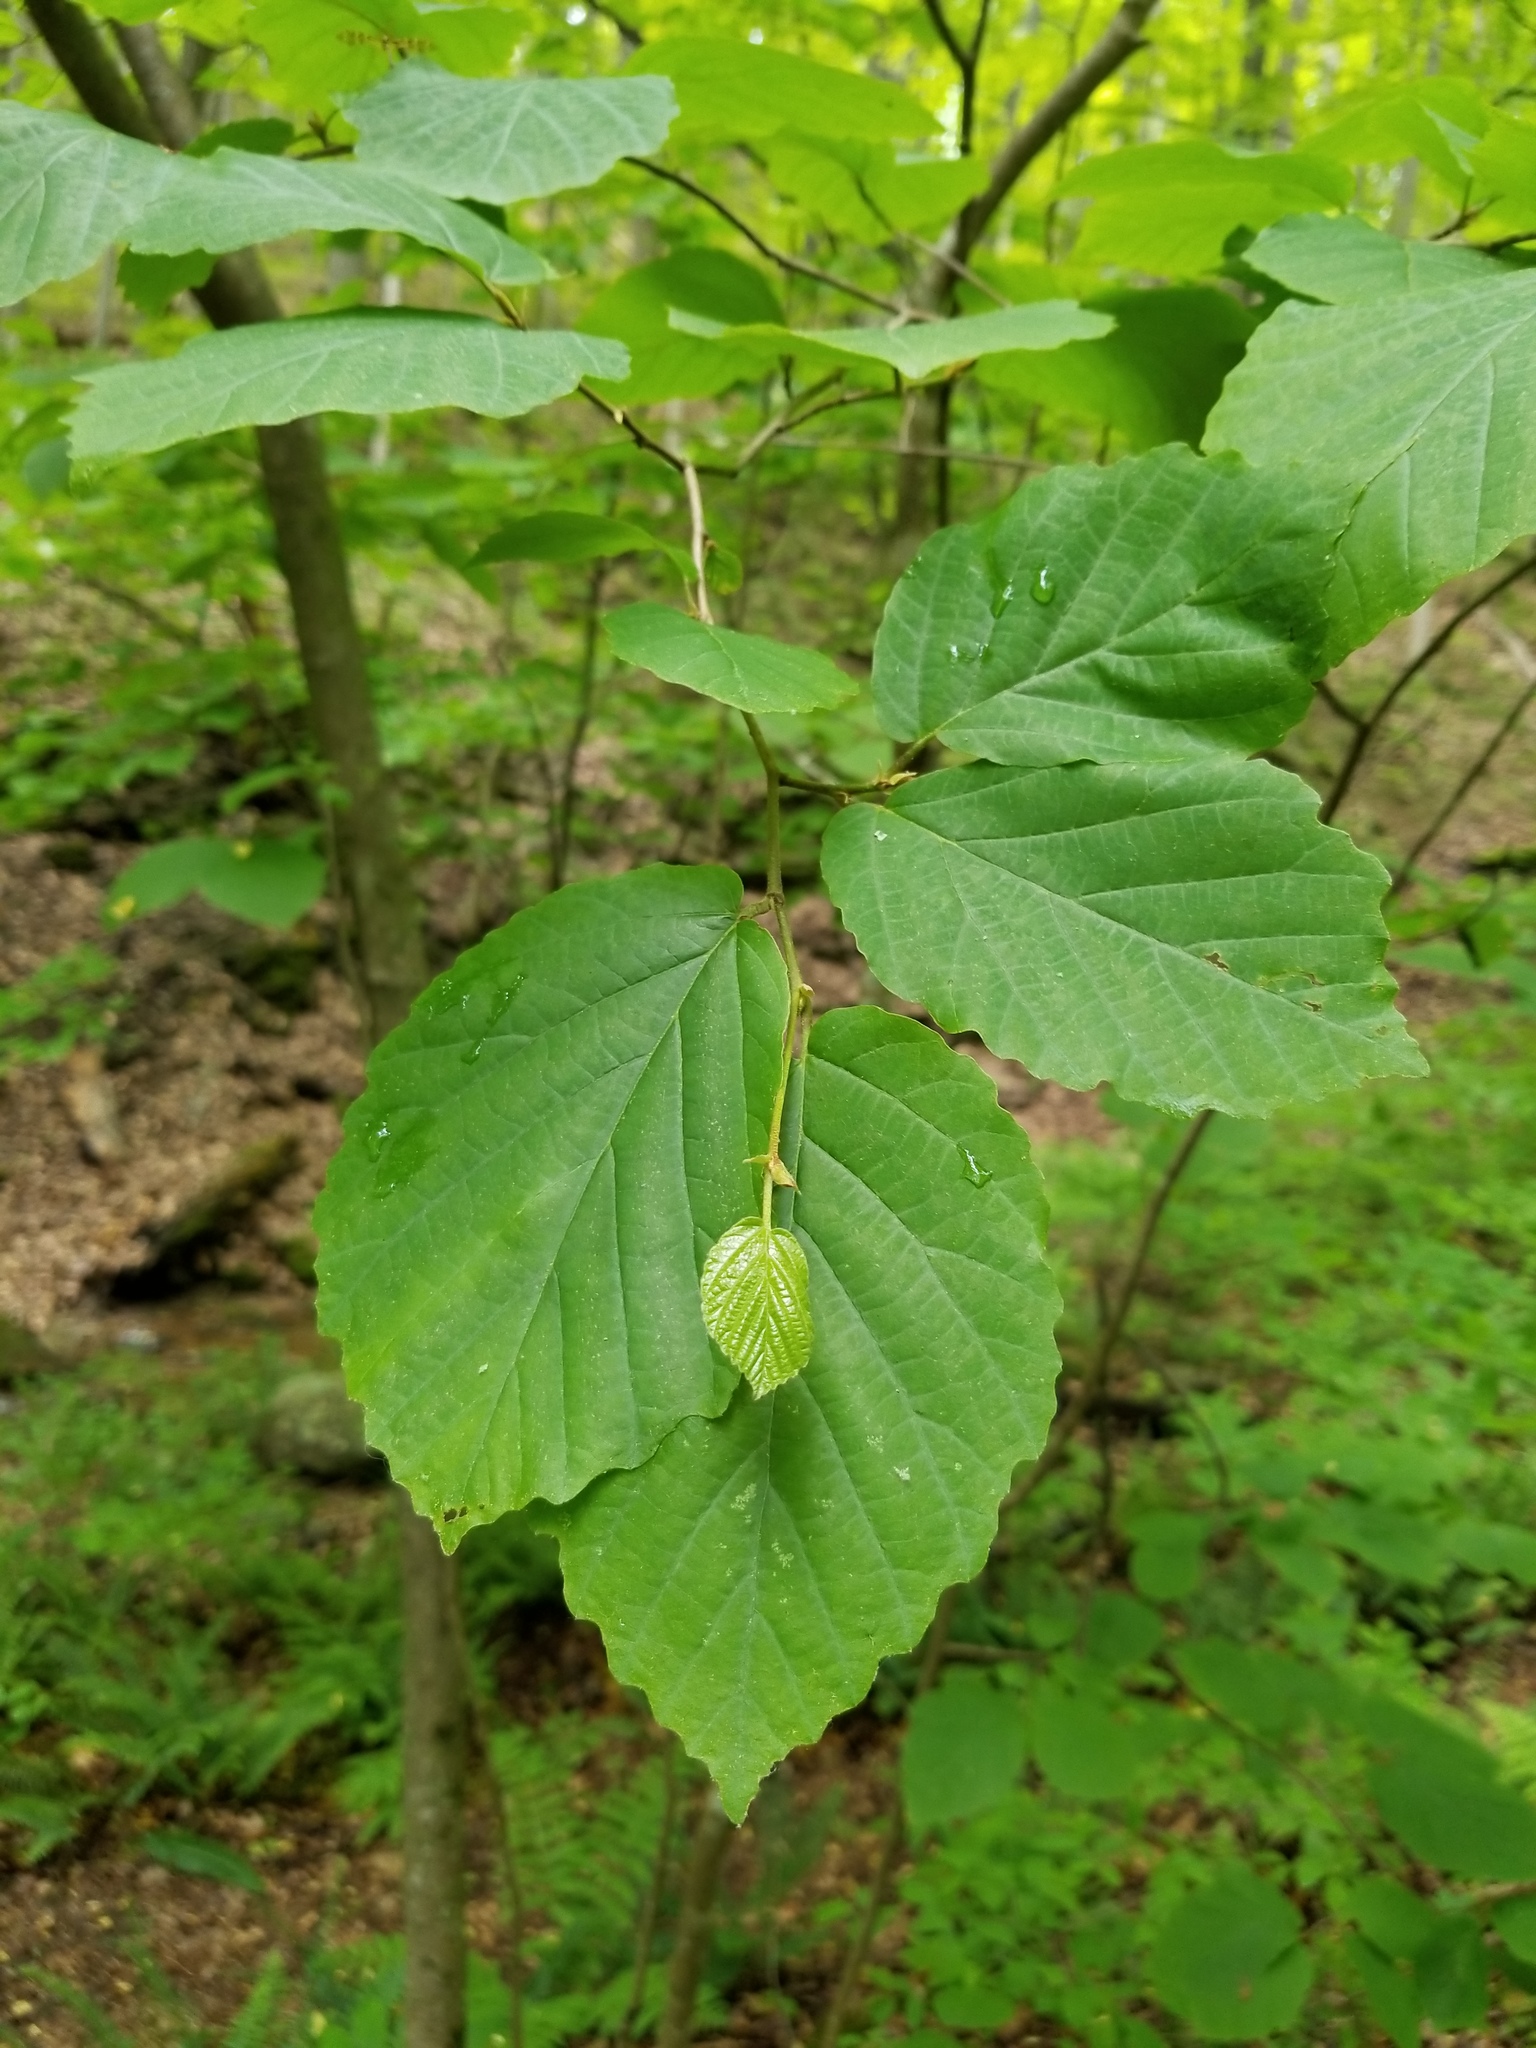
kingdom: Plantae
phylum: Tracheophyta
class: Magnoliopsida
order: Saxifragales
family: Hamamelidaceae
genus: Hamamelis
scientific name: Hamamelis virginiana
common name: Witch-hazel
